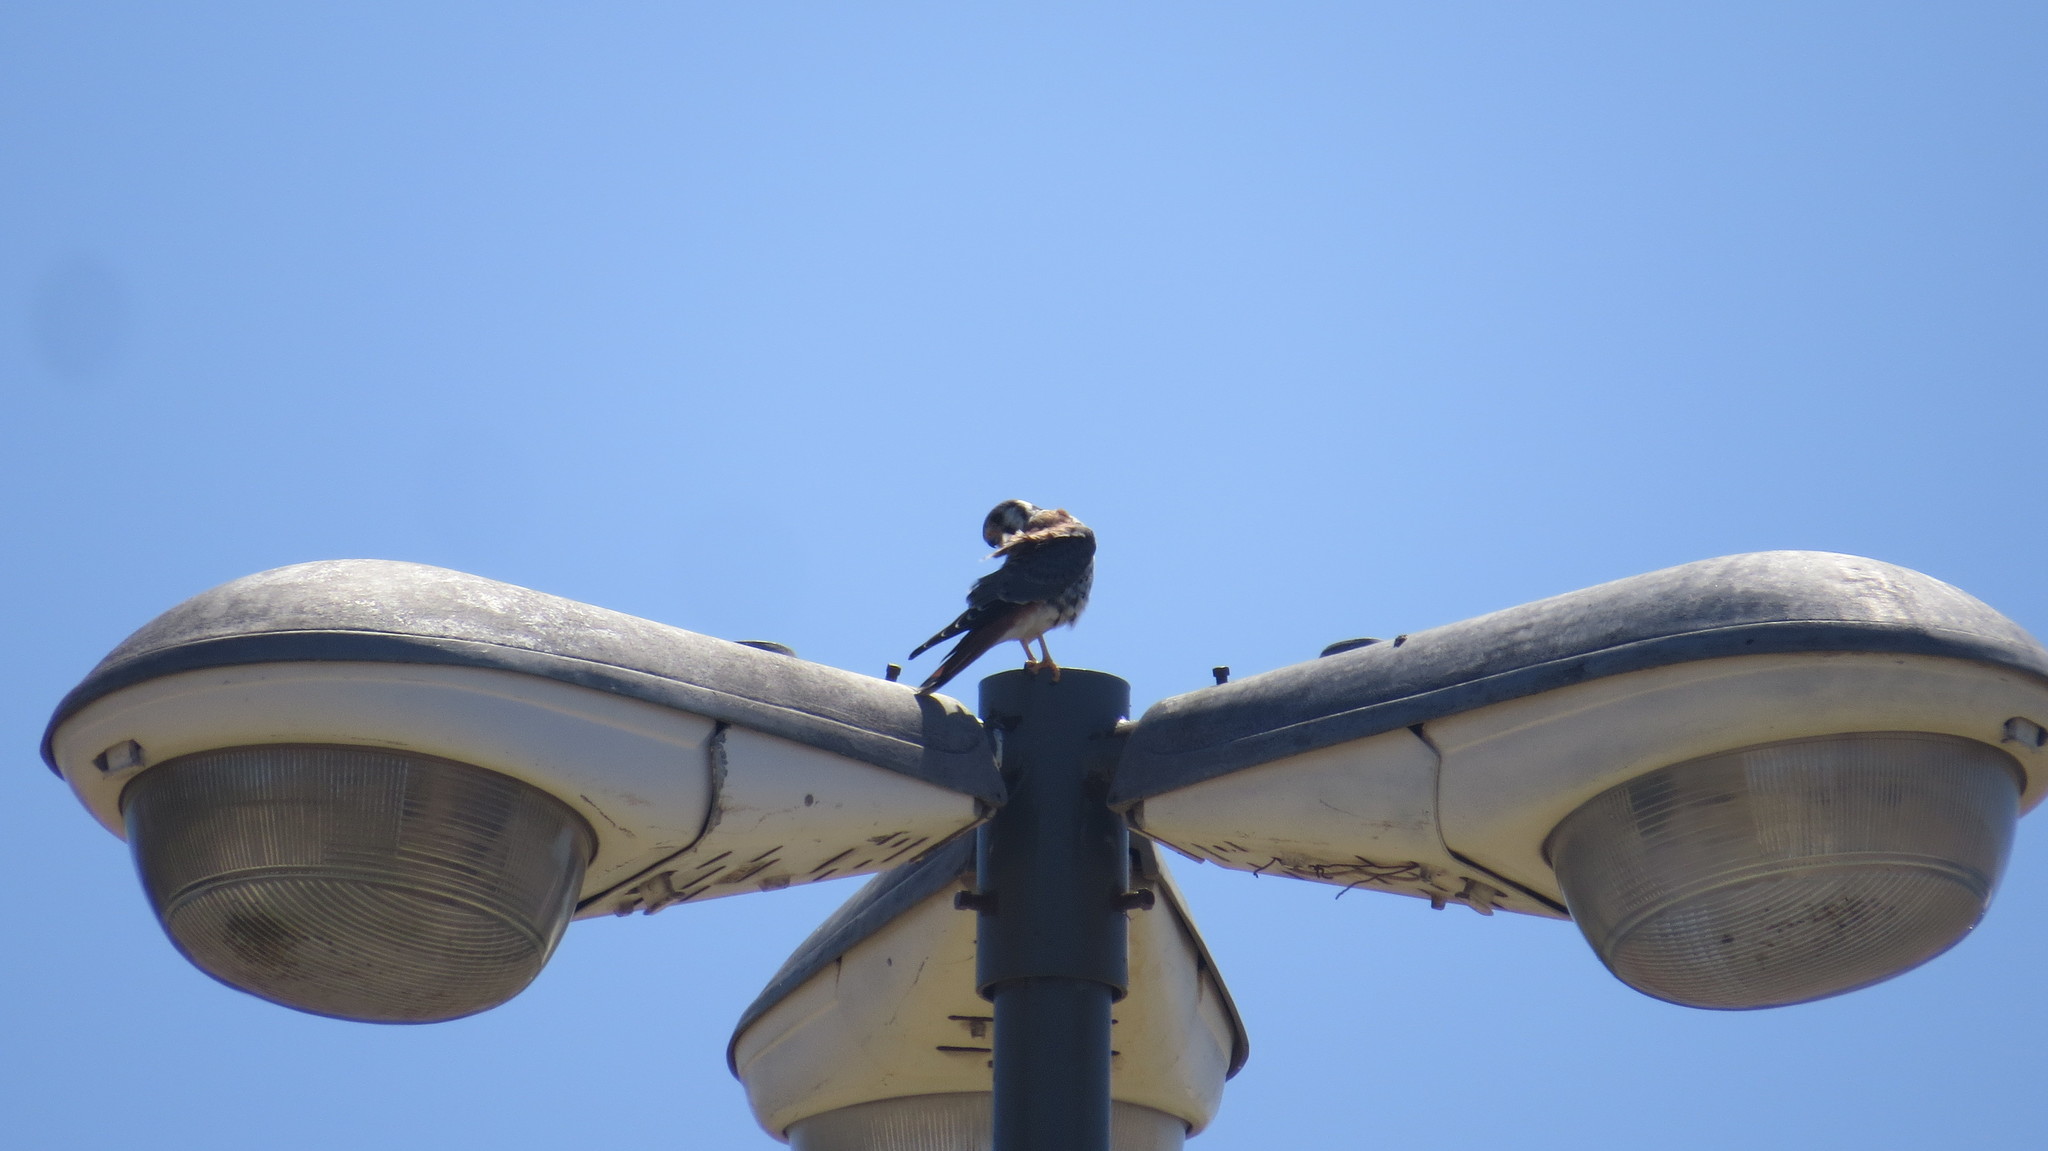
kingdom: Animalia
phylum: Chordata
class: Aves
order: Falconiformes
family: Falconidae
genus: Falco
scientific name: Falco sparverius
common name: American kestrel
